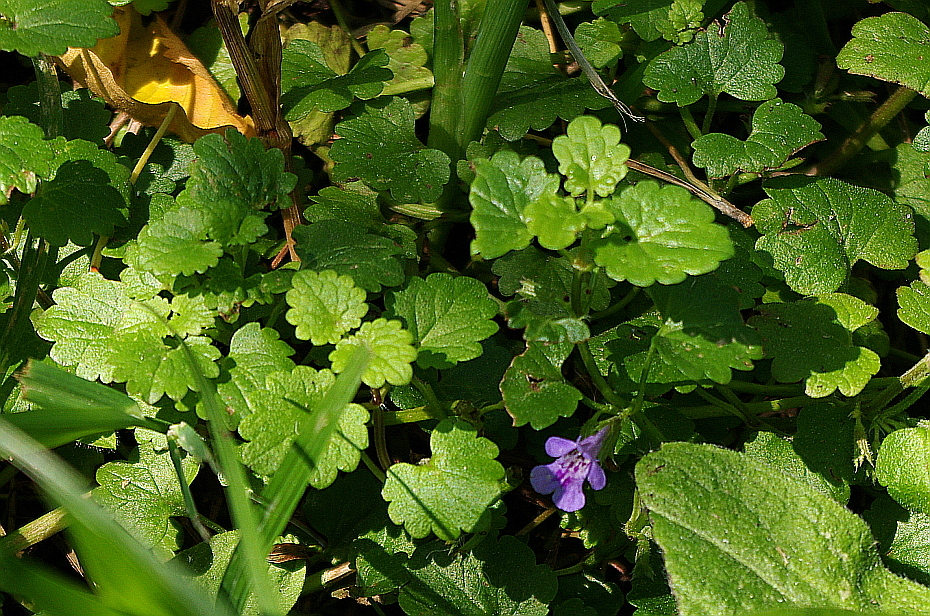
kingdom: Plantae
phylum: Tracheophyta
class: Magnoliopsida
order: Lamiales
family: Lamiaceae
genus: Glechoma
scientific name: Glechoma hederacea
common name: Ground ivy
